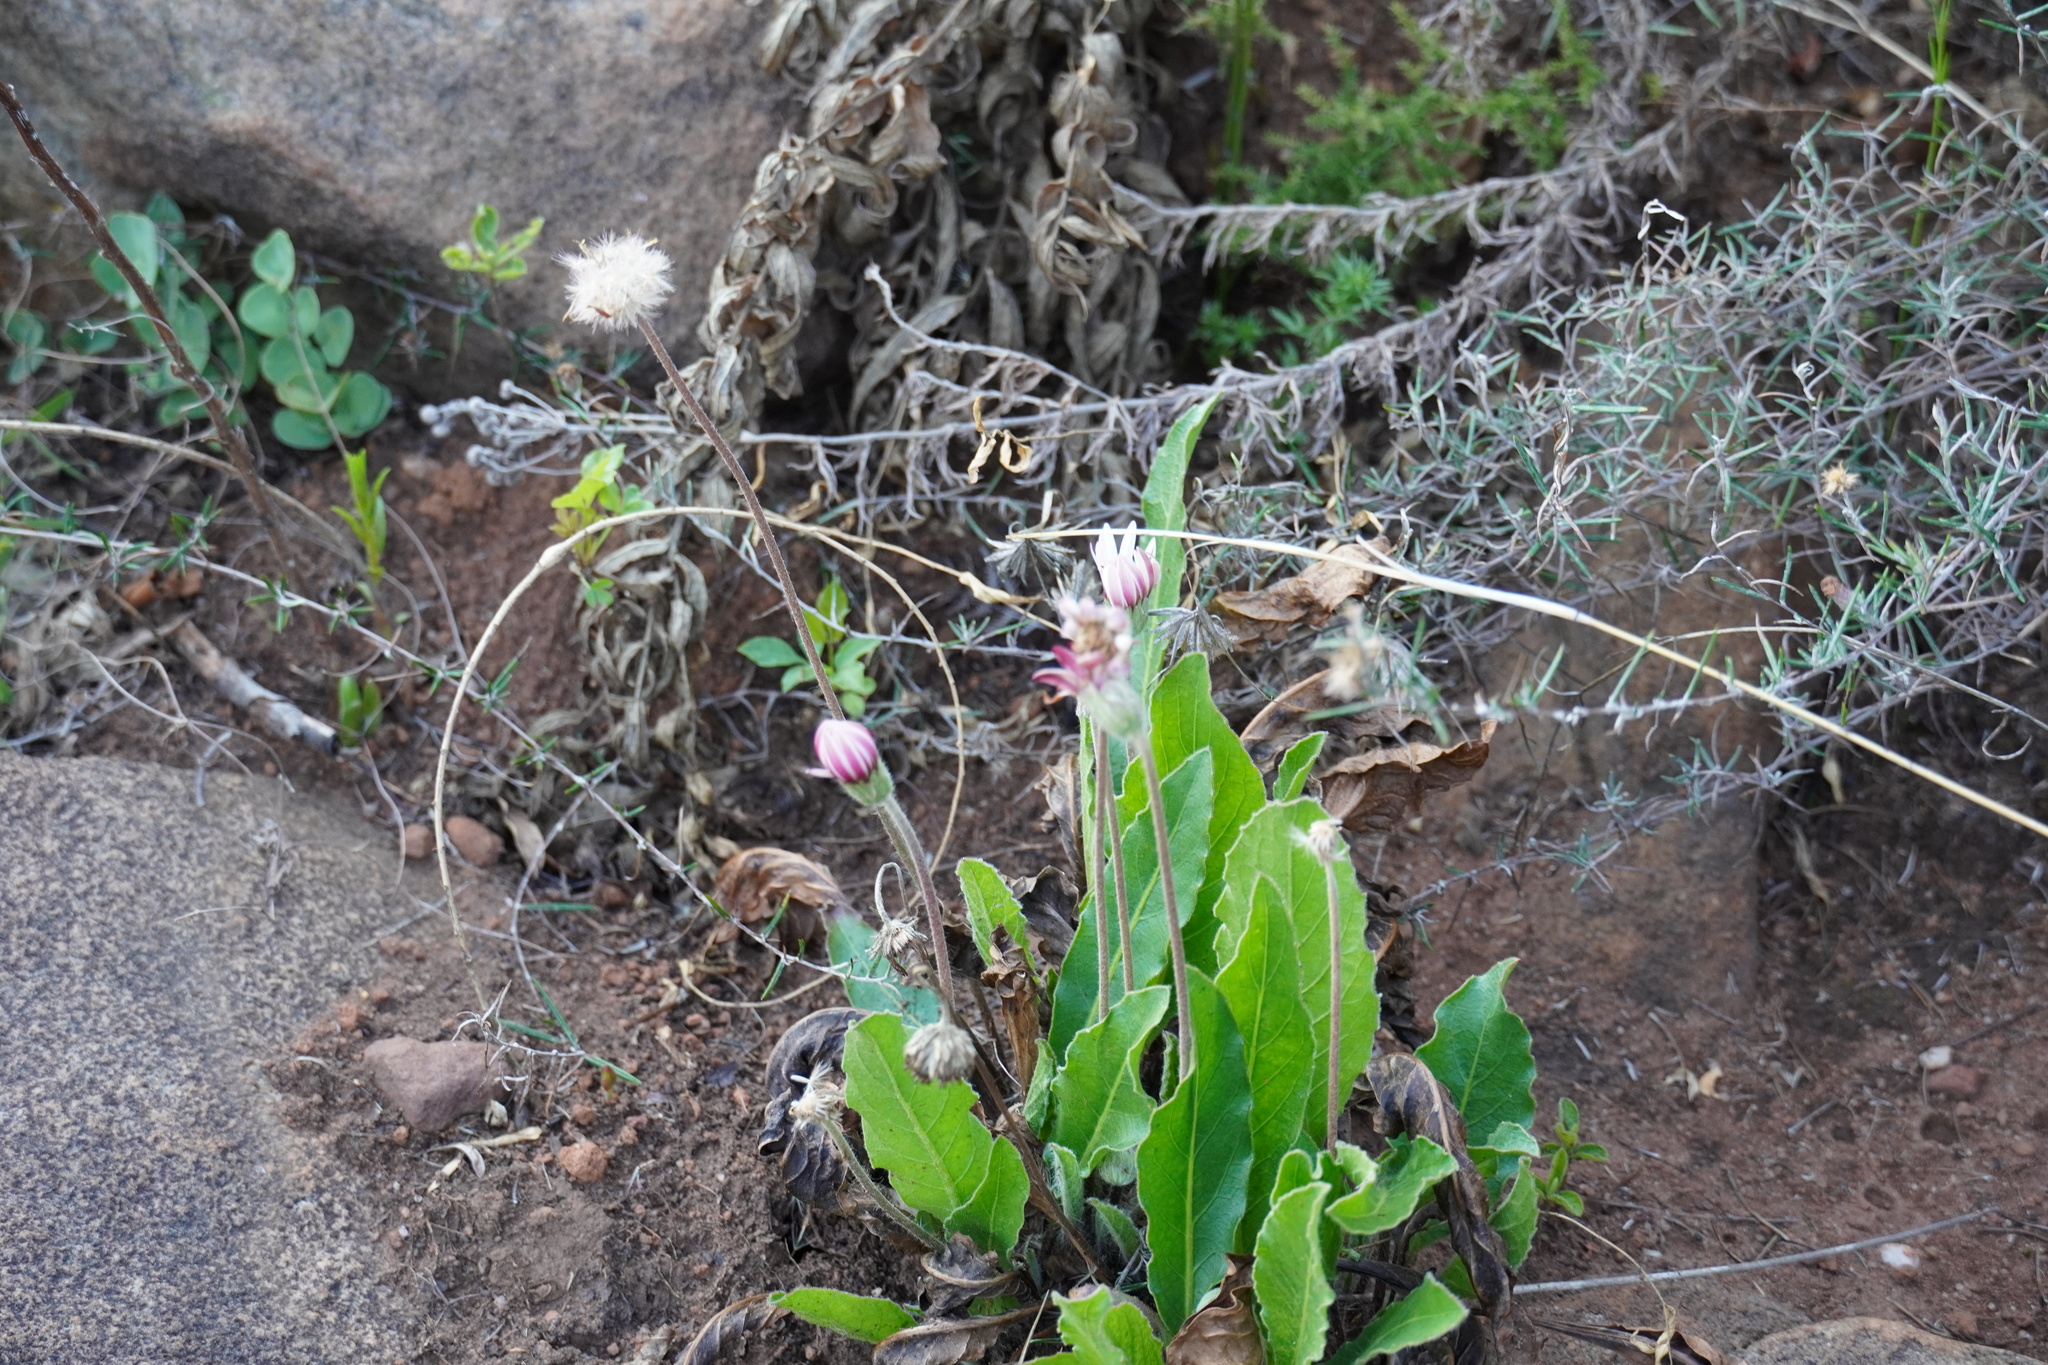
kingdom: Plantae
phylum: Tracheophyta
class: Magnoliopsida
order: Asterales
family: Asteraceae
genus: Gerbera
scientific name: Gerbera viridifolia
